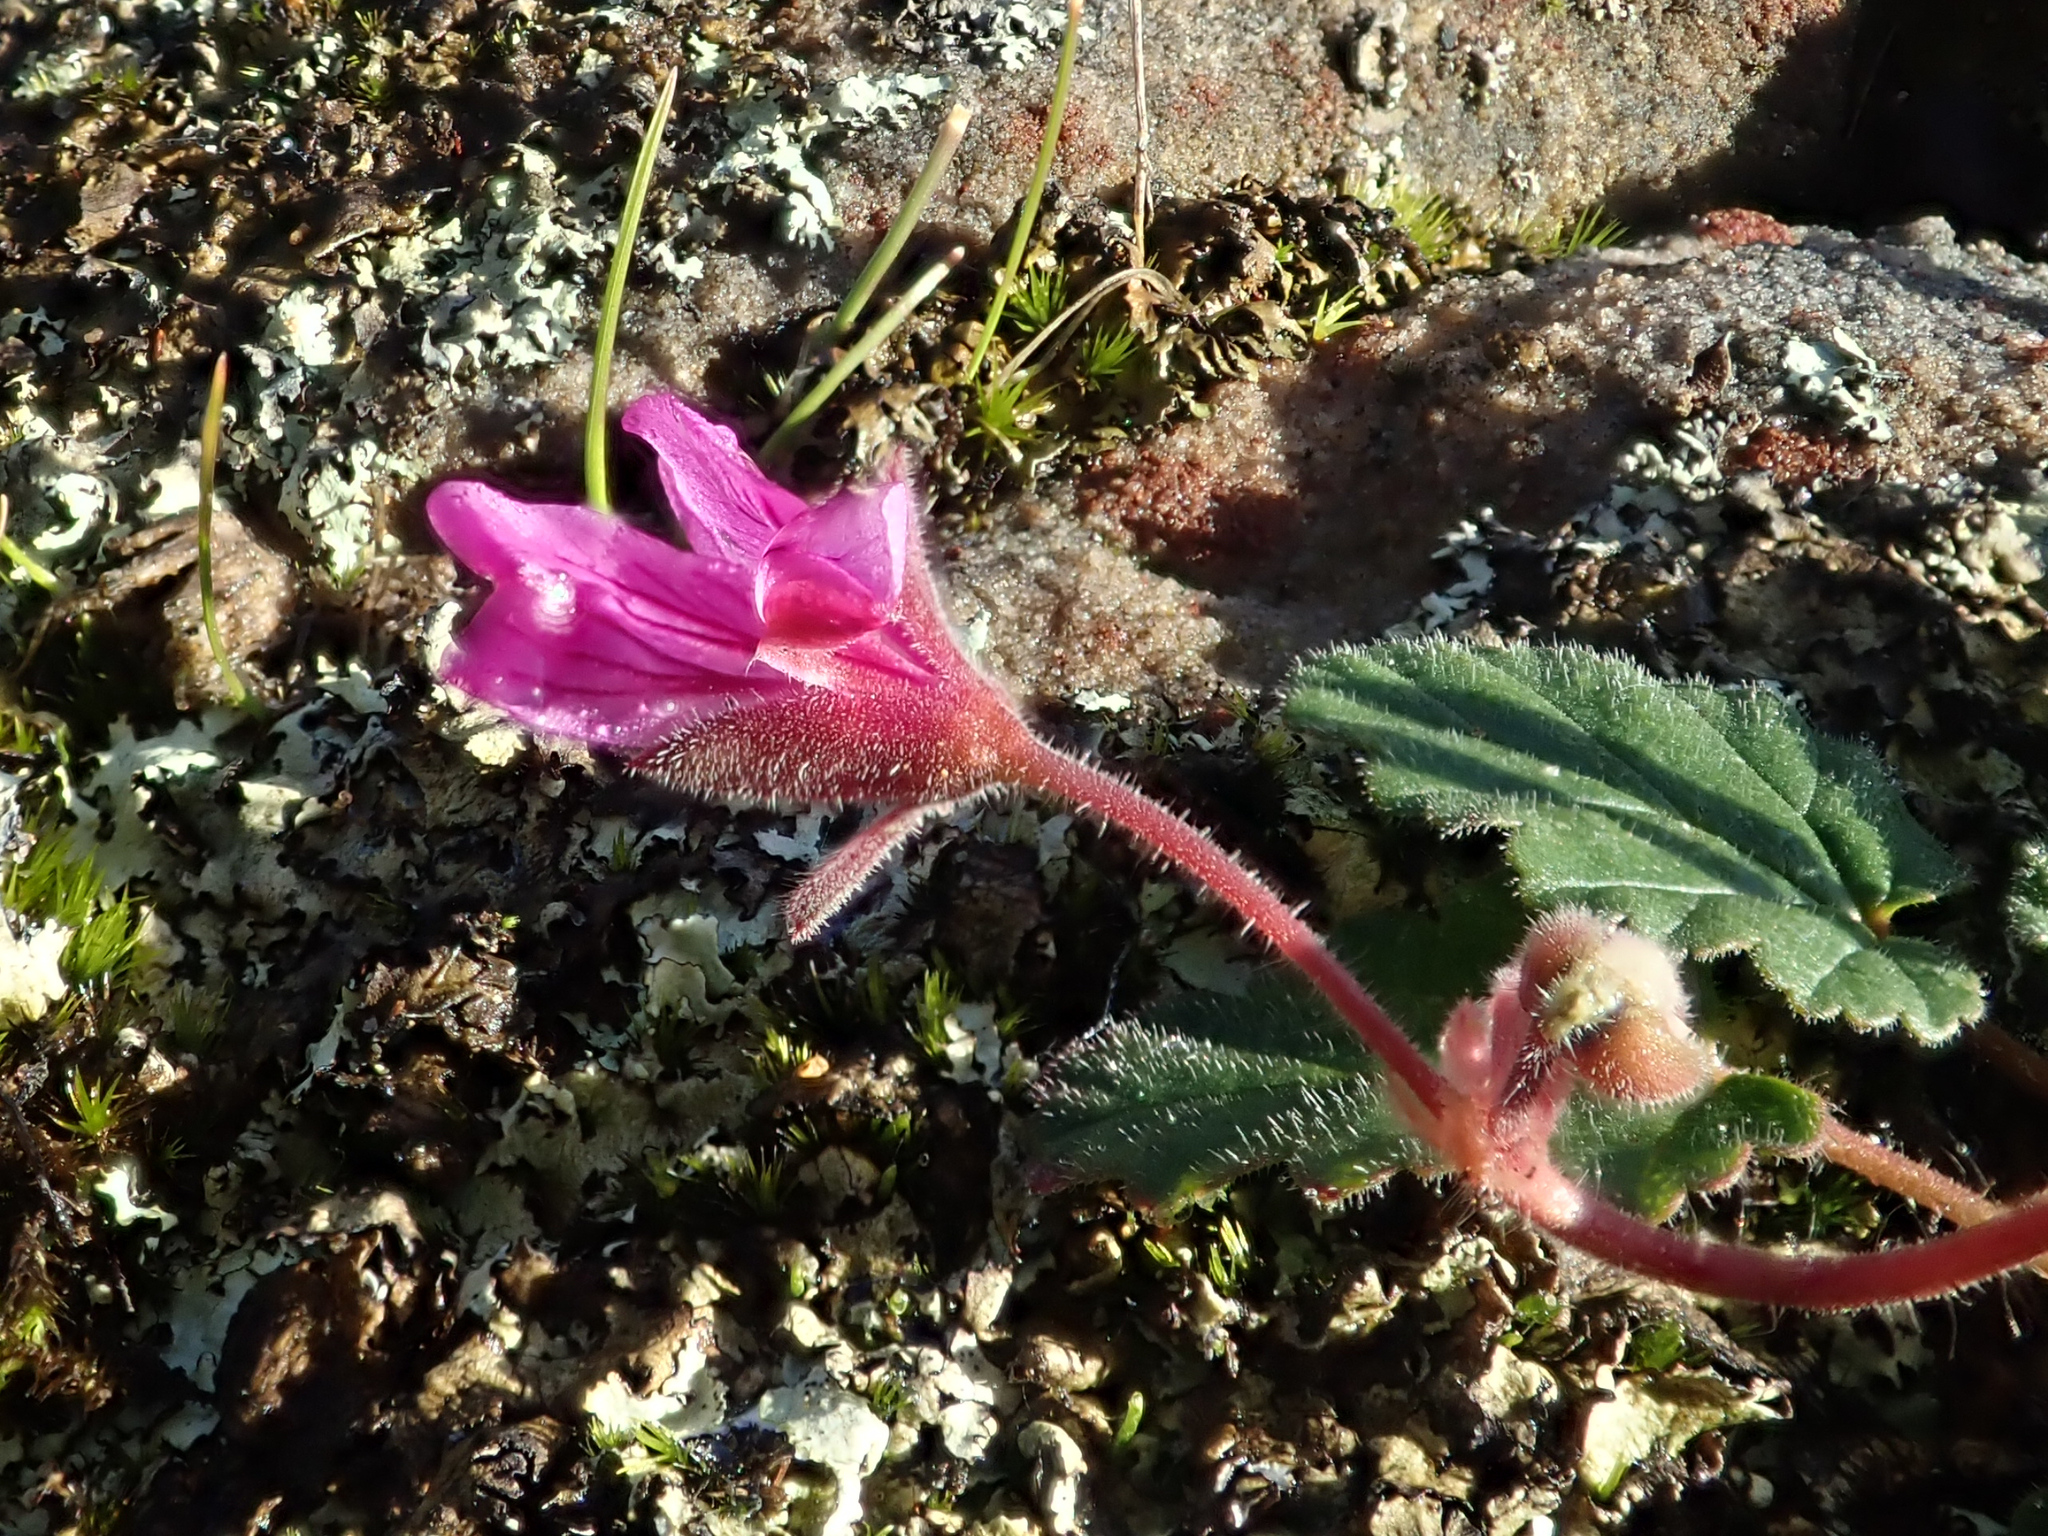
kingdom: Plantae
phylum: Tracheophyta
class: Magnoliopsida
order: Geraniales
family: Geraniaceae
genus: Pelargonium
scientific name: Pelargonium rodneyanum
